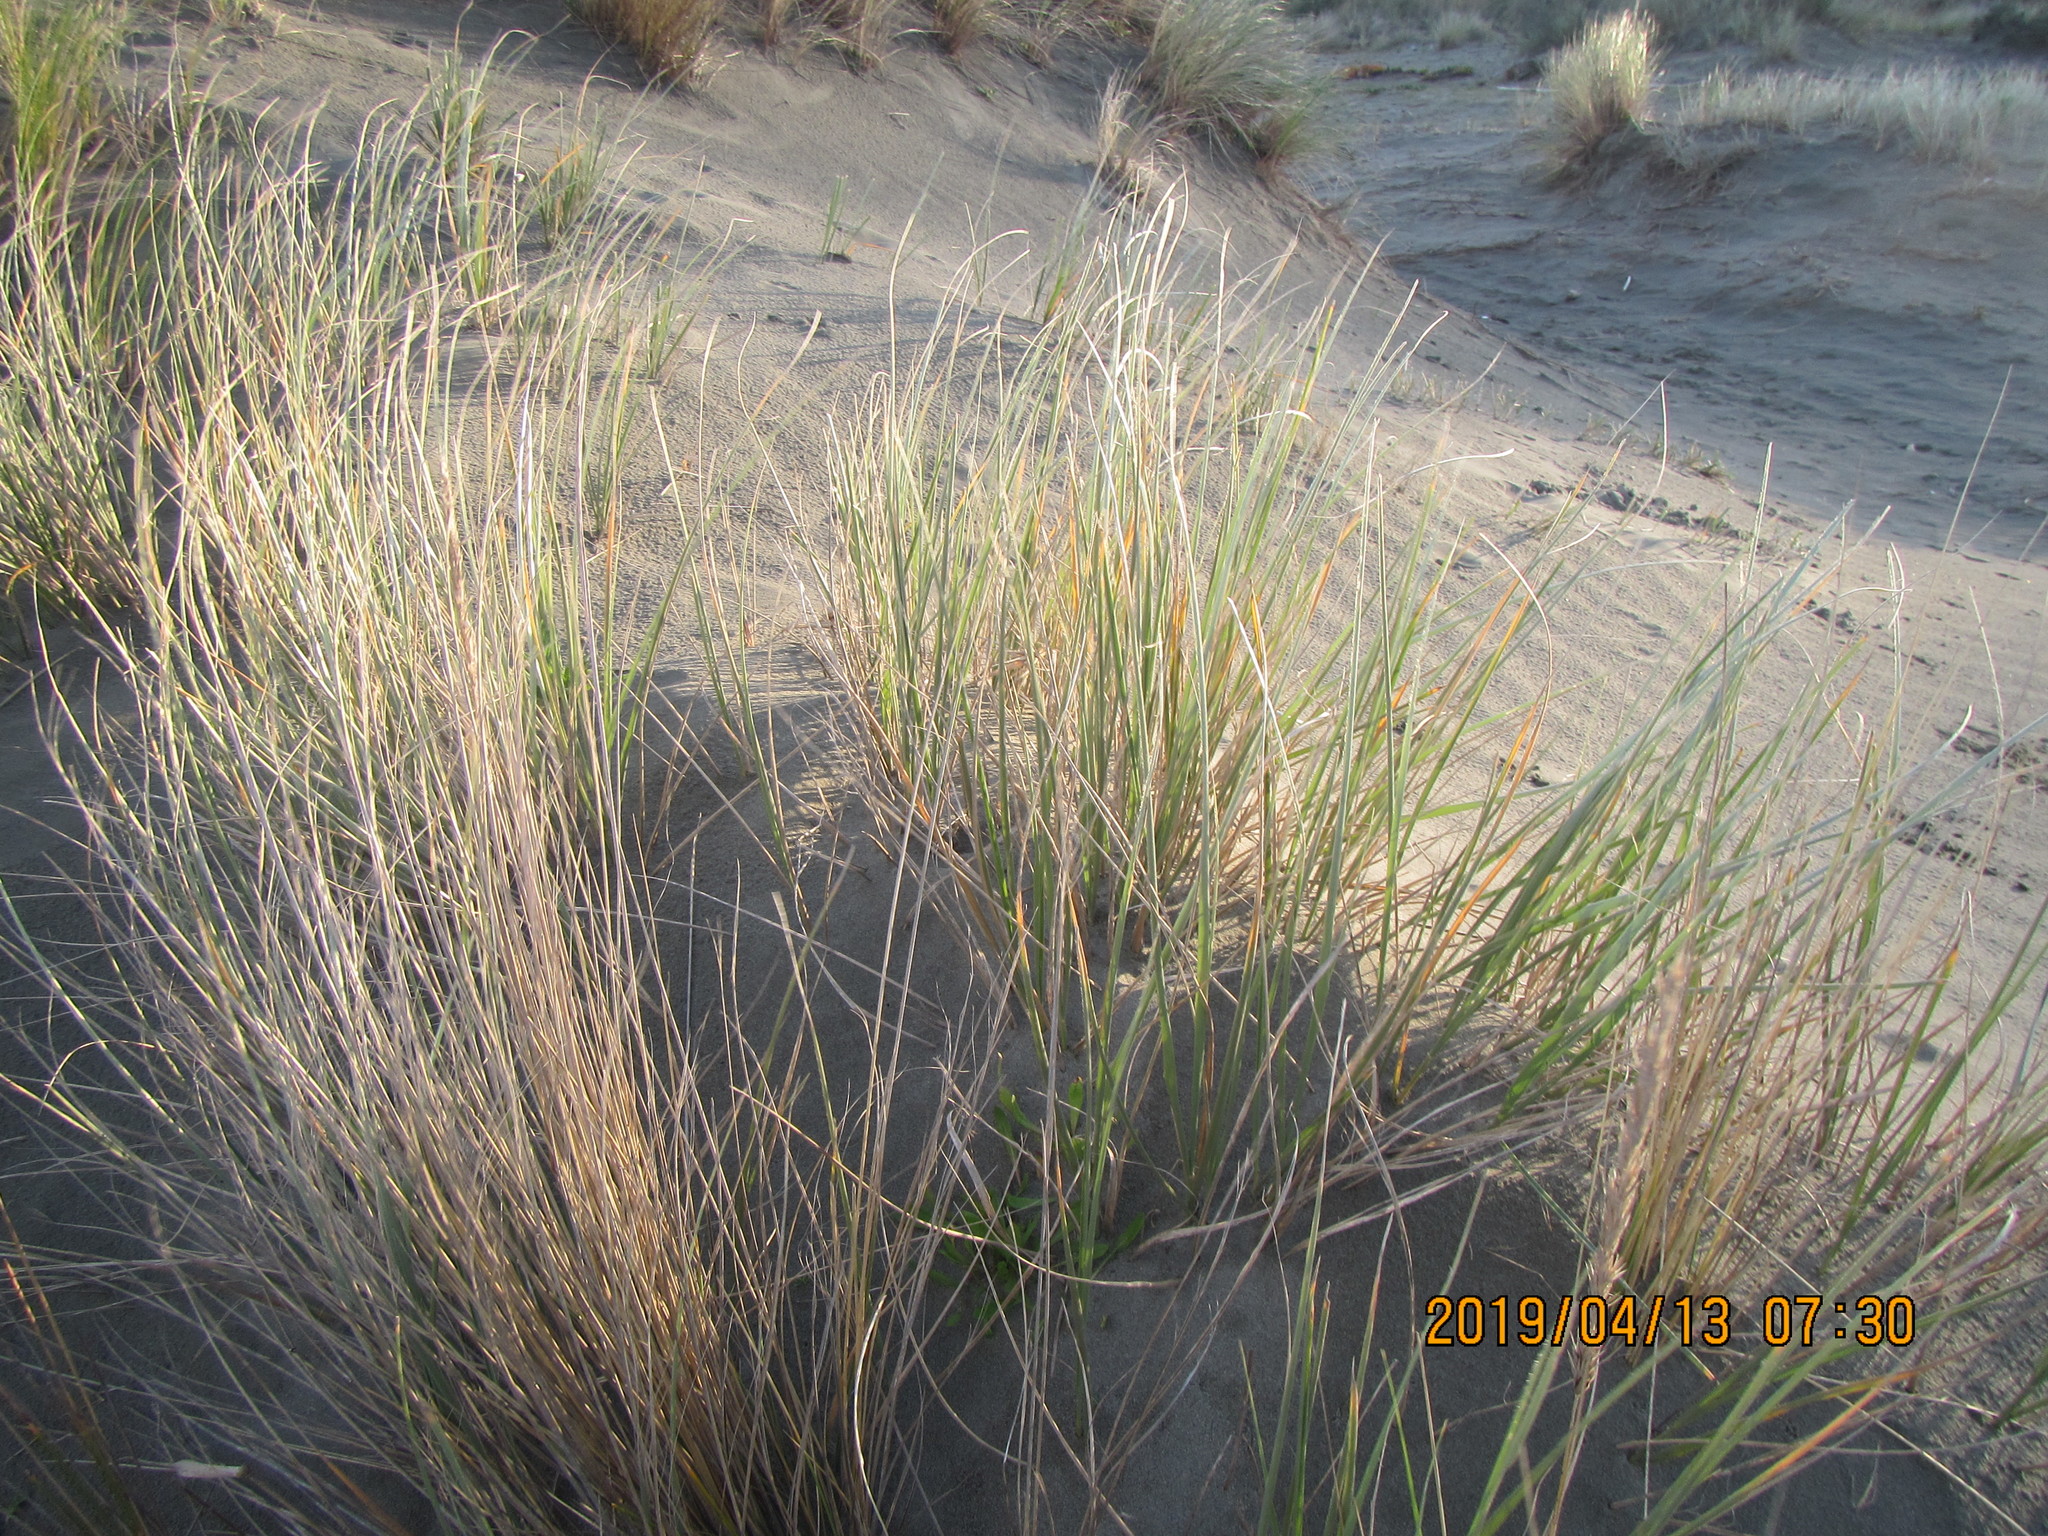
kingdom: Plantae
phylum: Tracheophyta
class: Liliopsida
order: Poales
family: Poaceae
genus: Spinifex
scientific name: Spinifex sericeus
